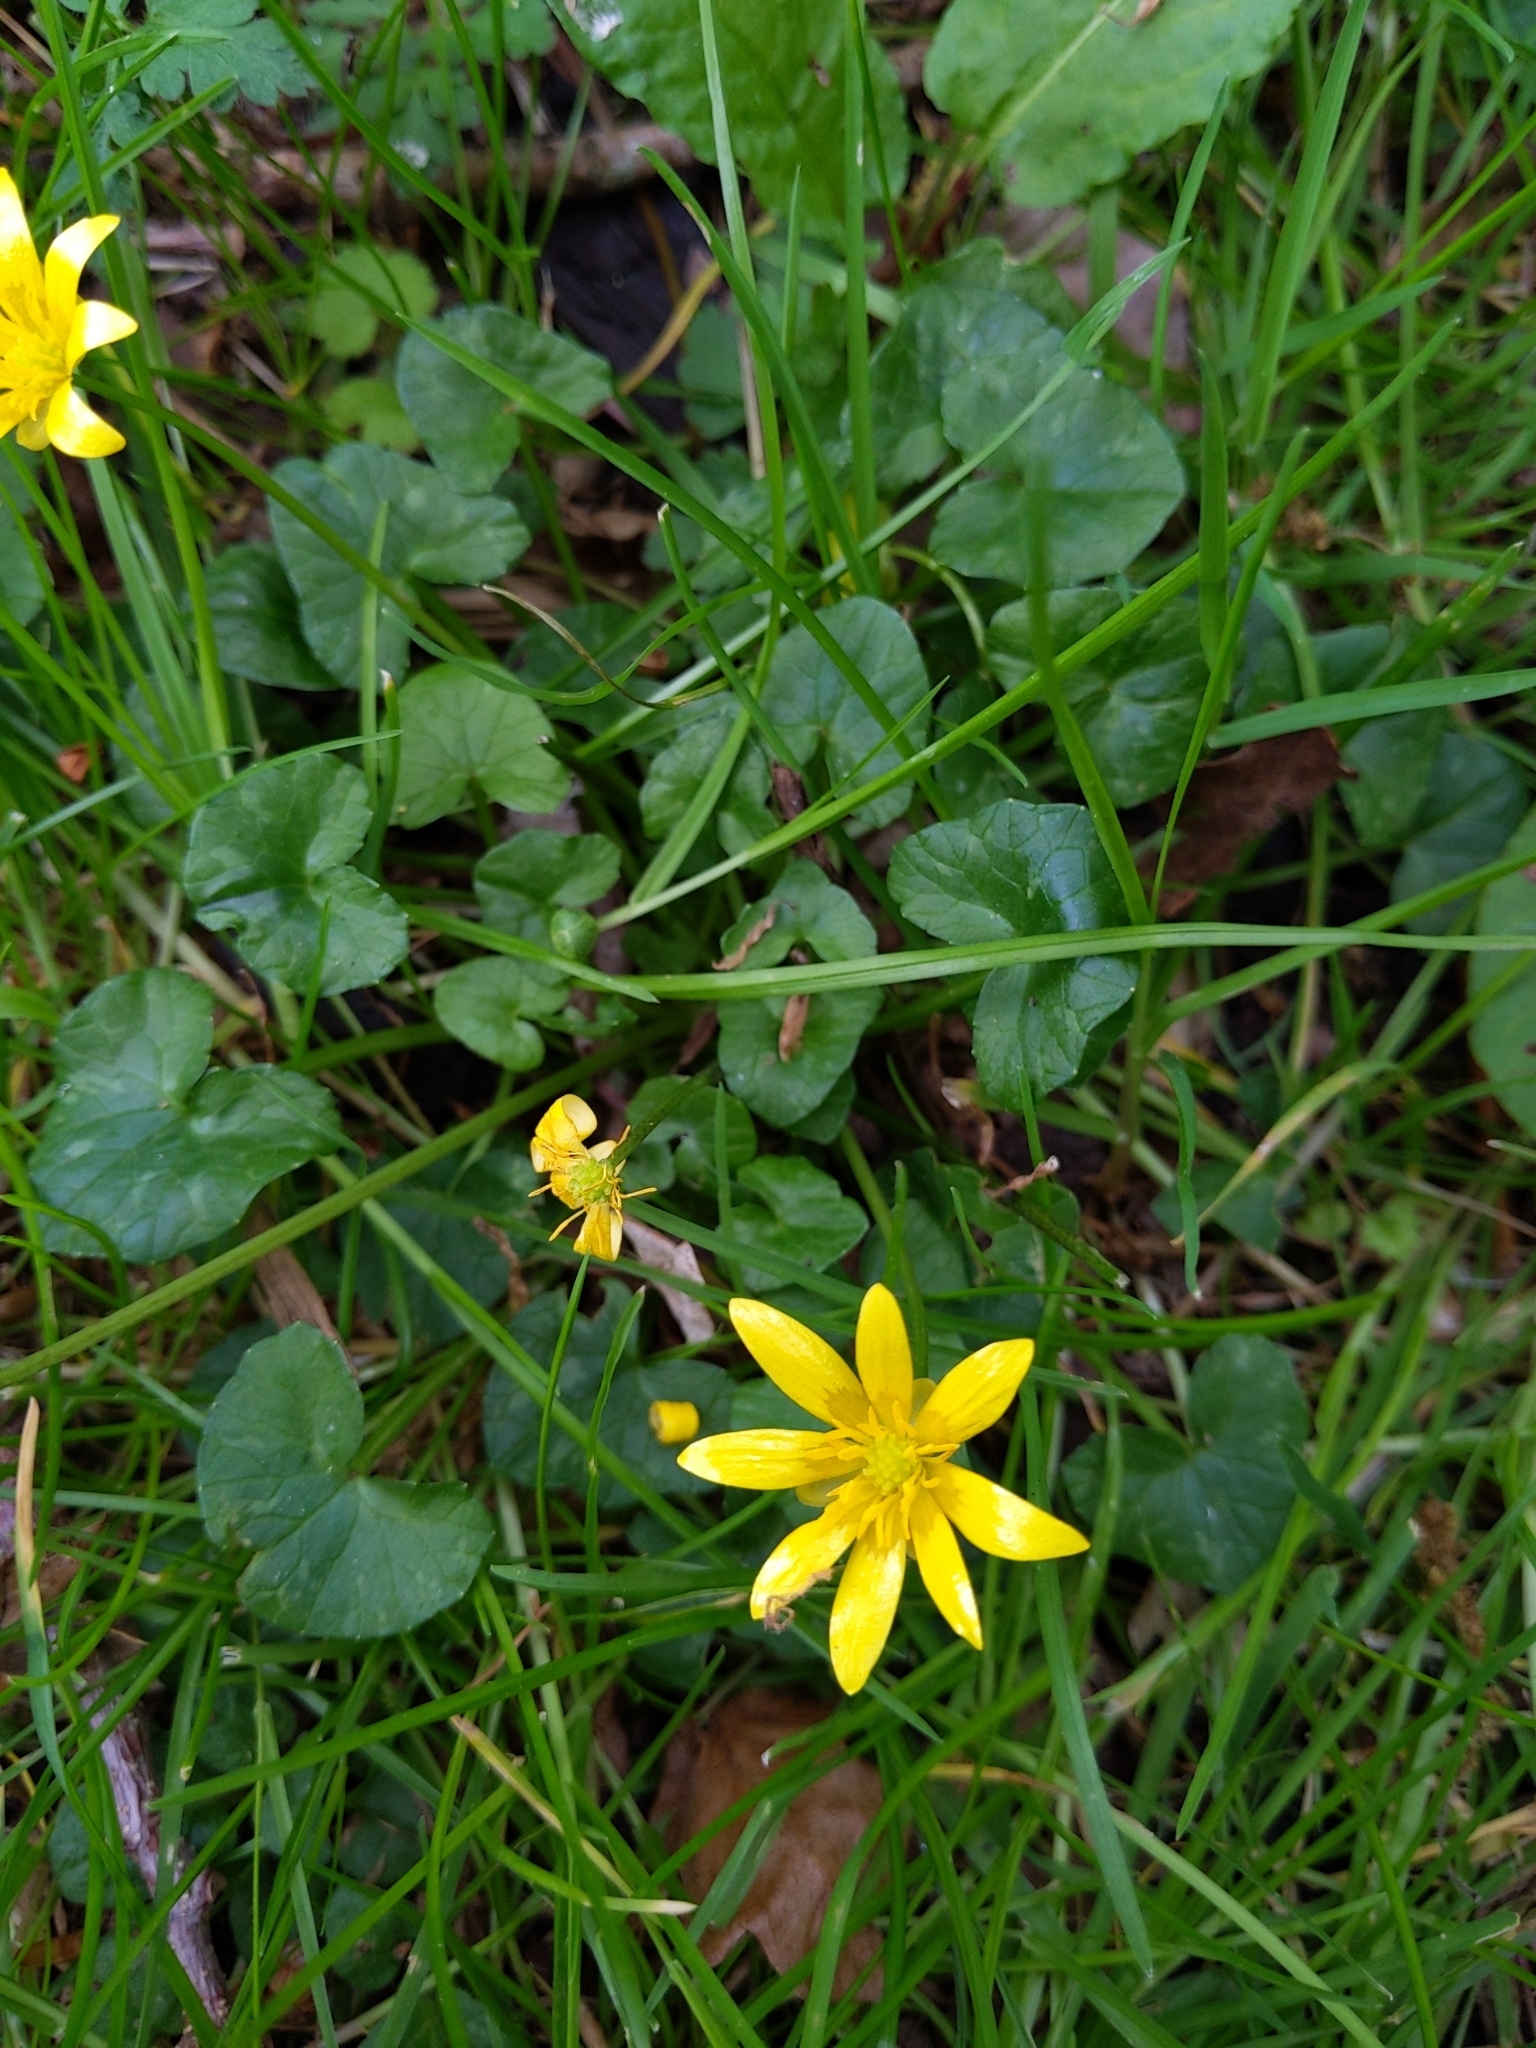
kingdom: Plantae
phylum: Tracheophyta
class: Magnoliopsida
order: Ranunculales
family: Ranunculaceae
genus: Ficaria
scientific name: Ficaria verna
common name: Lesser celandine
